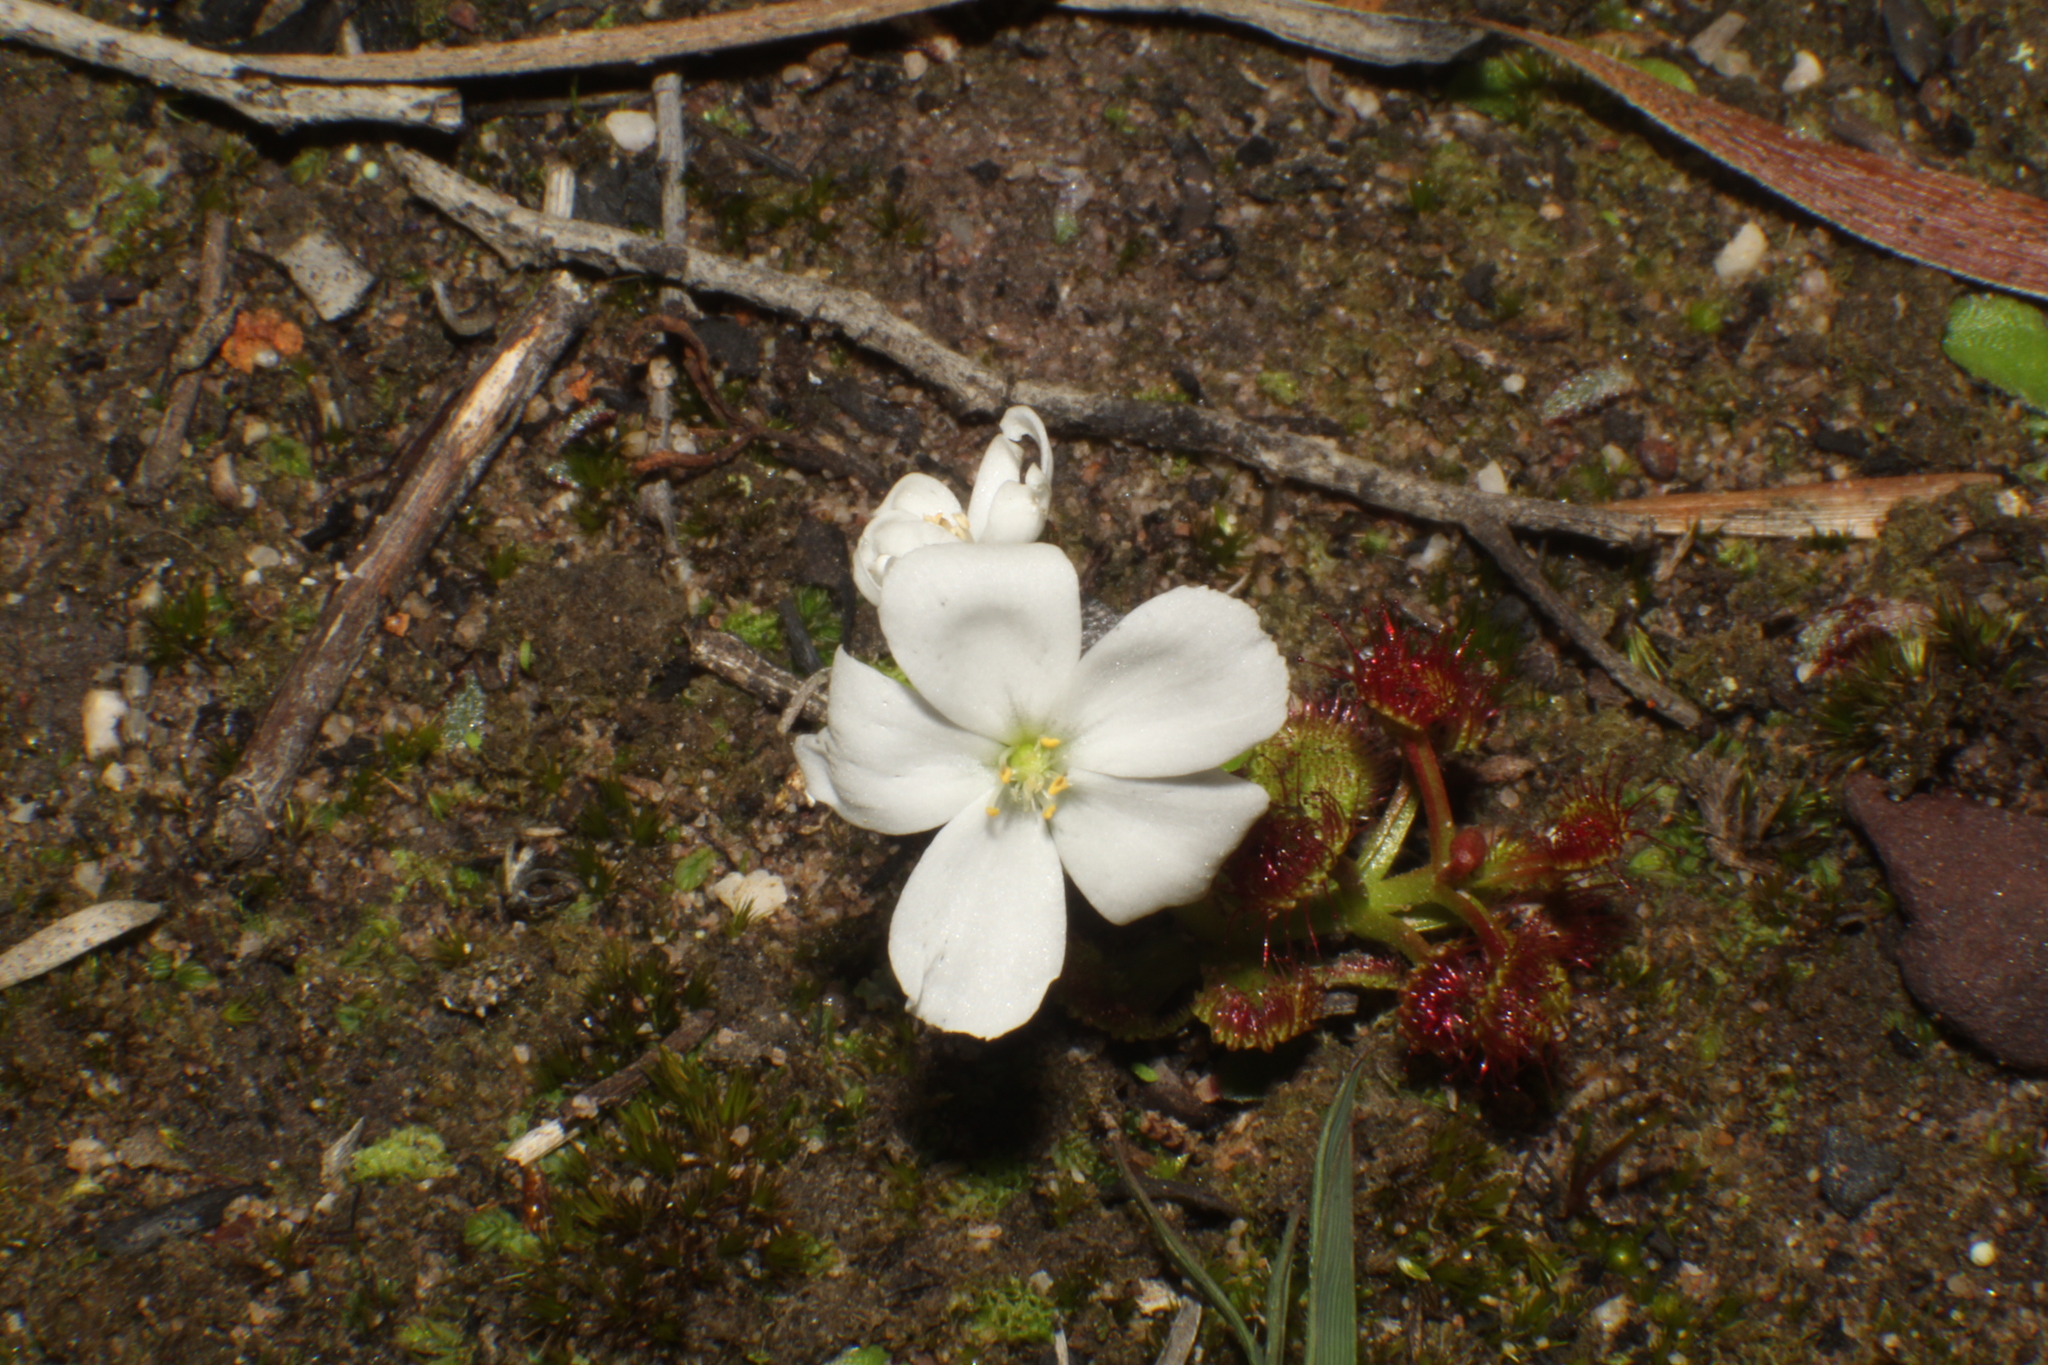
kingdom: Plantae
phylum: Tracheophyta
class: Magnoliopsida
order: Caryophyllales
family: Droseraceae
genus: Drosera
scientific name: Drosera stolonifera
